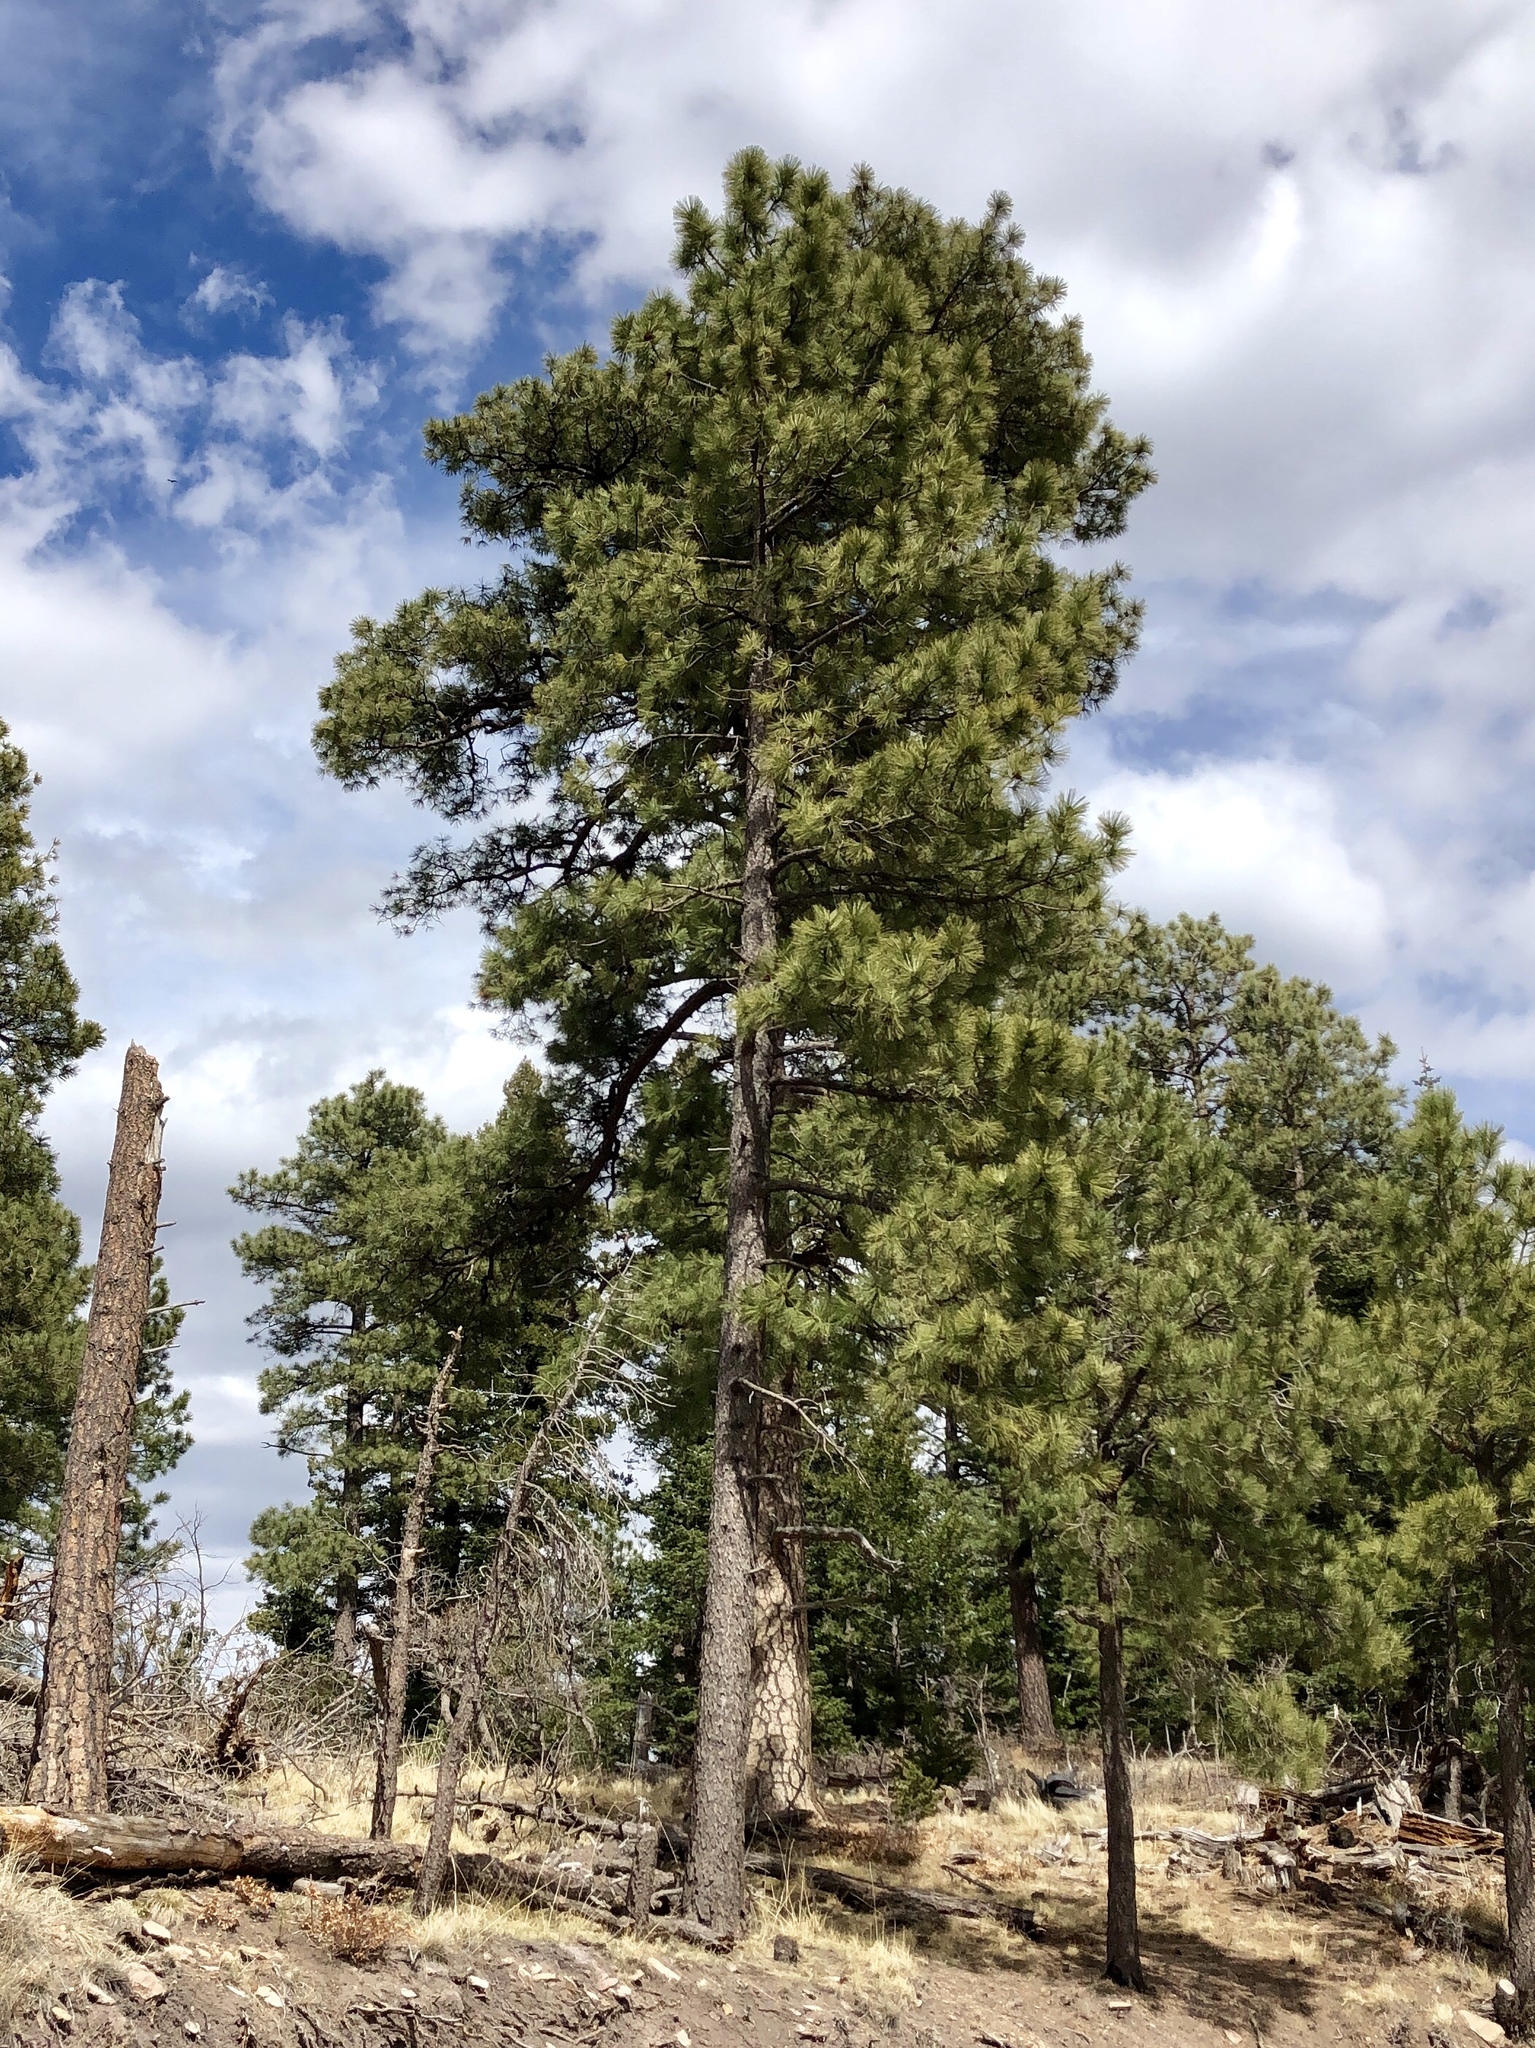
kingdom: Plantae
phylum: Tracheophyta
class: Pinopsida
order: Pinales
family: Pinaceae
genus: Pinus
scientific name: Pinus ponderosa
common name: Western yellow-pine
